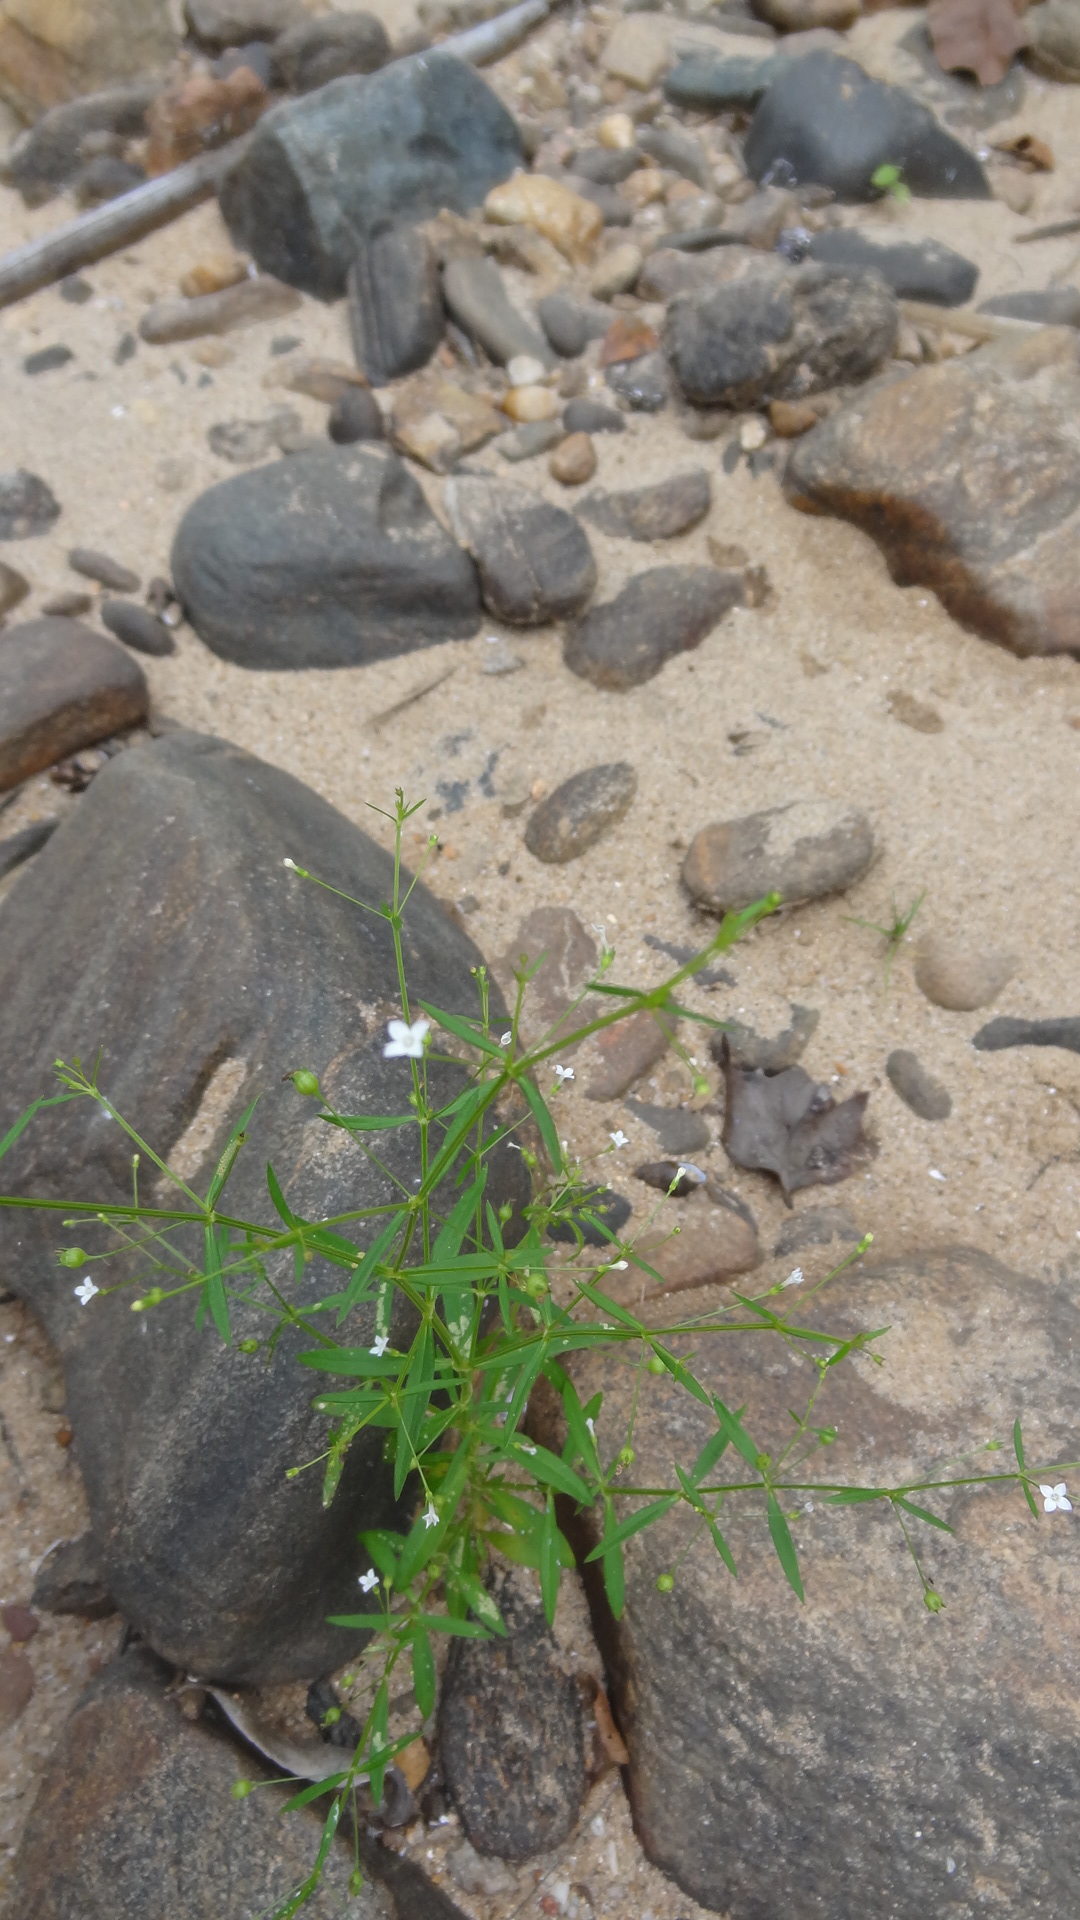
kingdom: Plantae
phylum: Tracheophyta
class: Magnoliopsida
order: Gentianales
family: Rubiaceae
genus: Oldenlandia
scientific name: Oldenlandia herbacea
